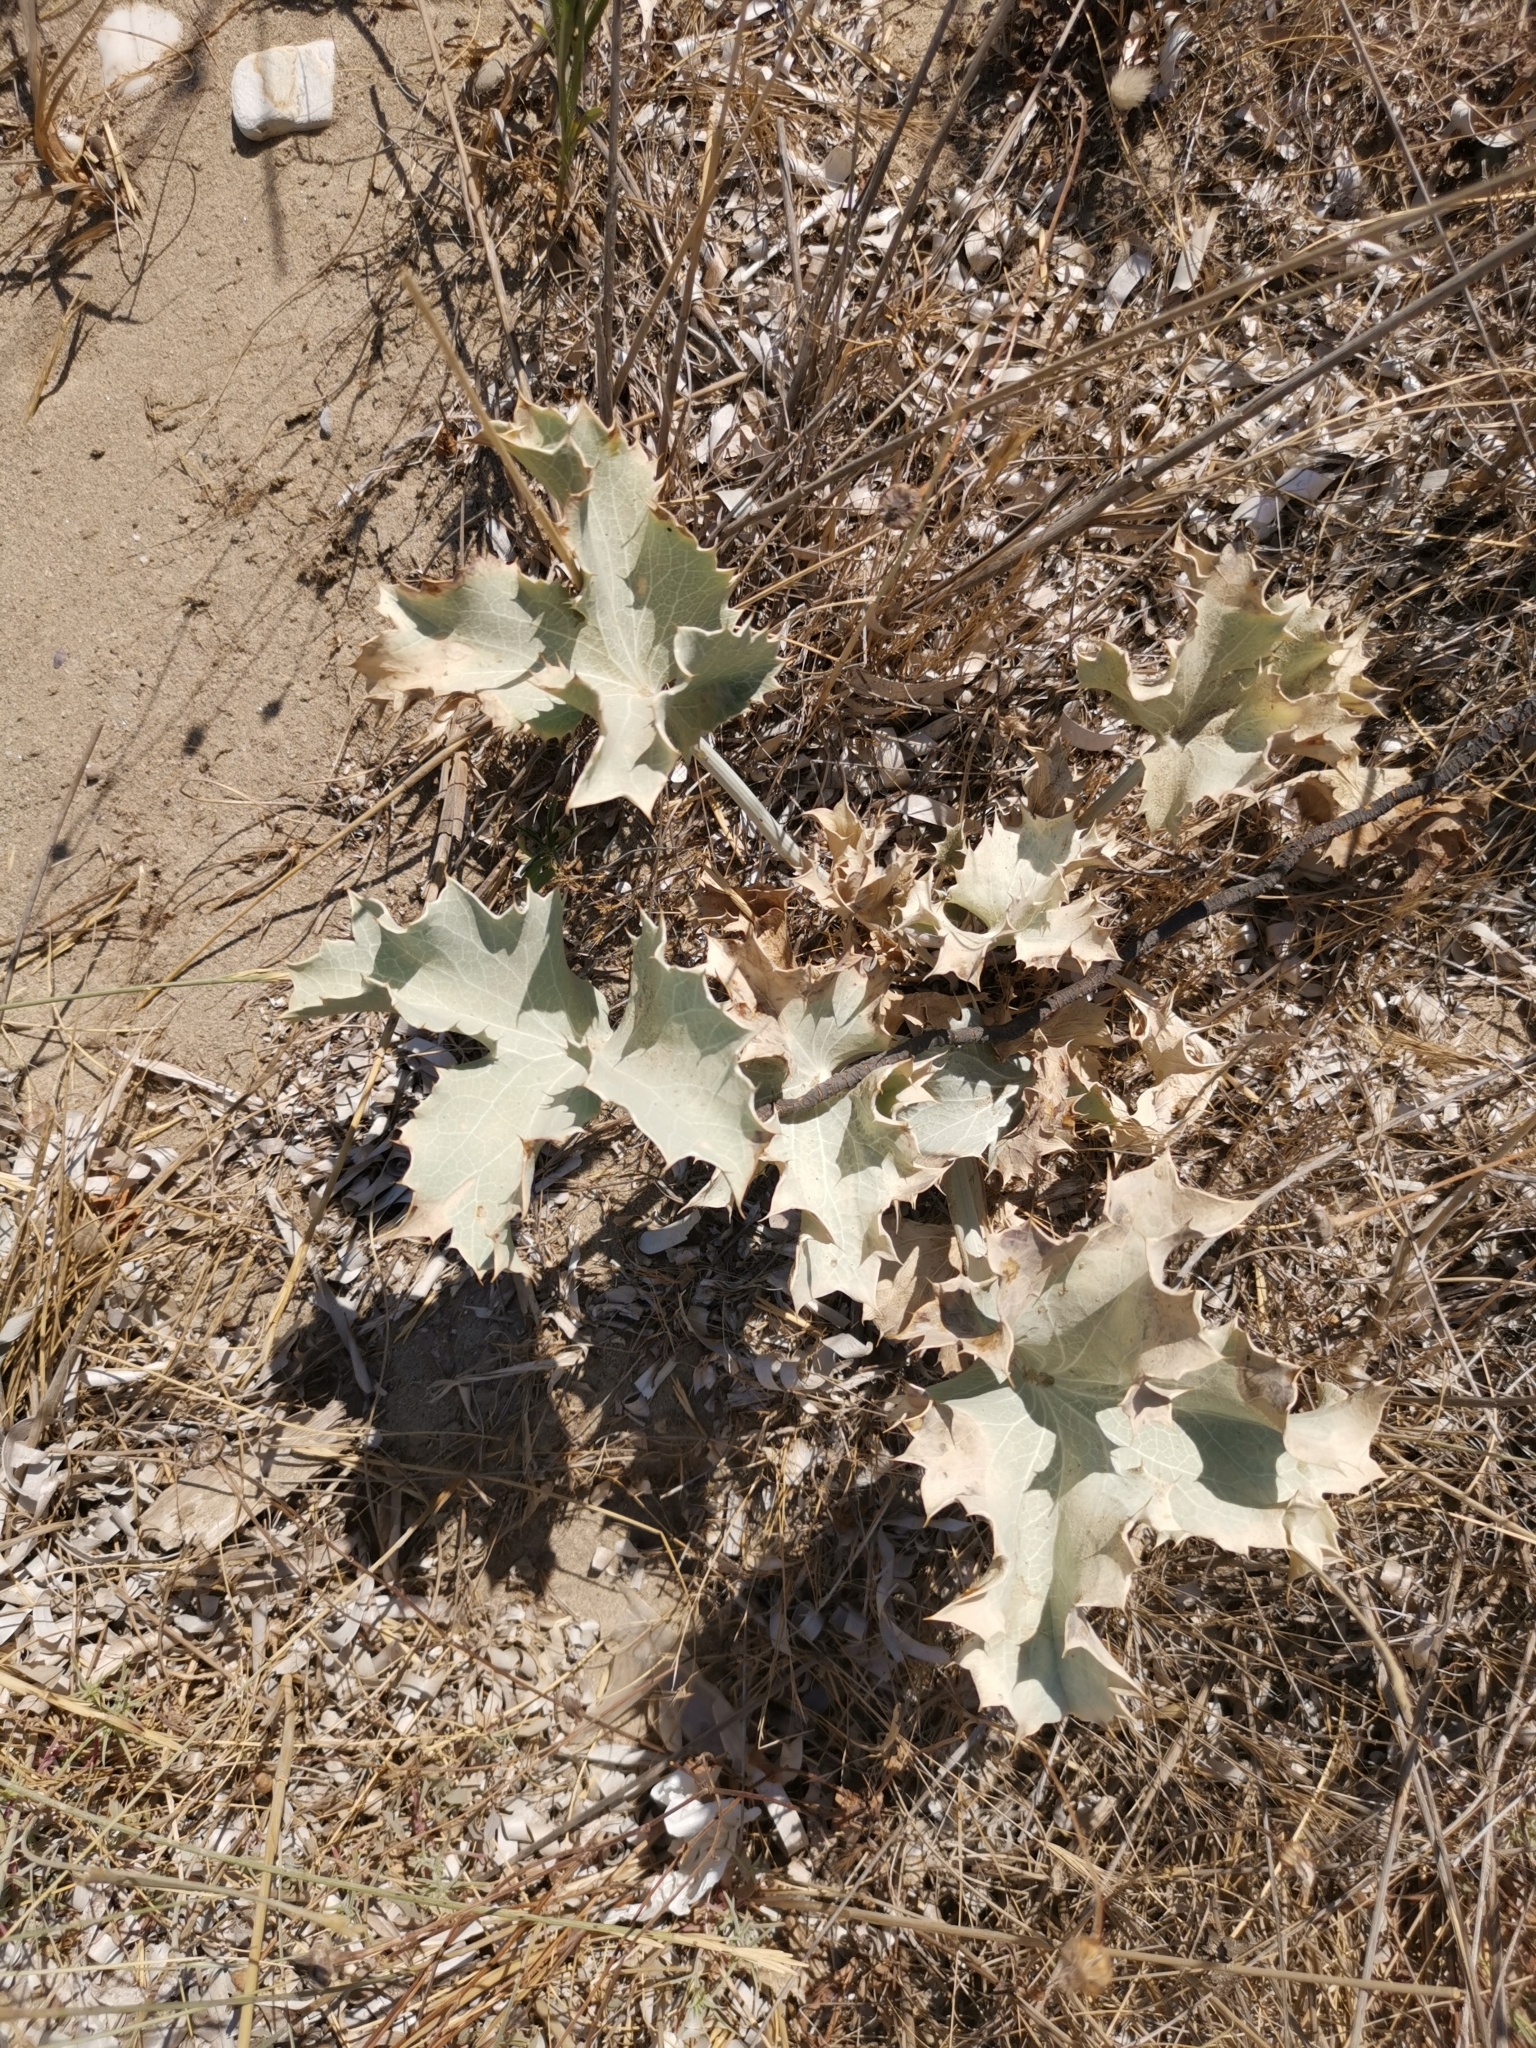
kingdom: Plantae
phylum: Tracheophyta
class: Magnoliopsida
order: Apiales
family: Apiaceae
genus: Eryngium
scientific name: Eryngium maritimum
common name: Sea-holly
